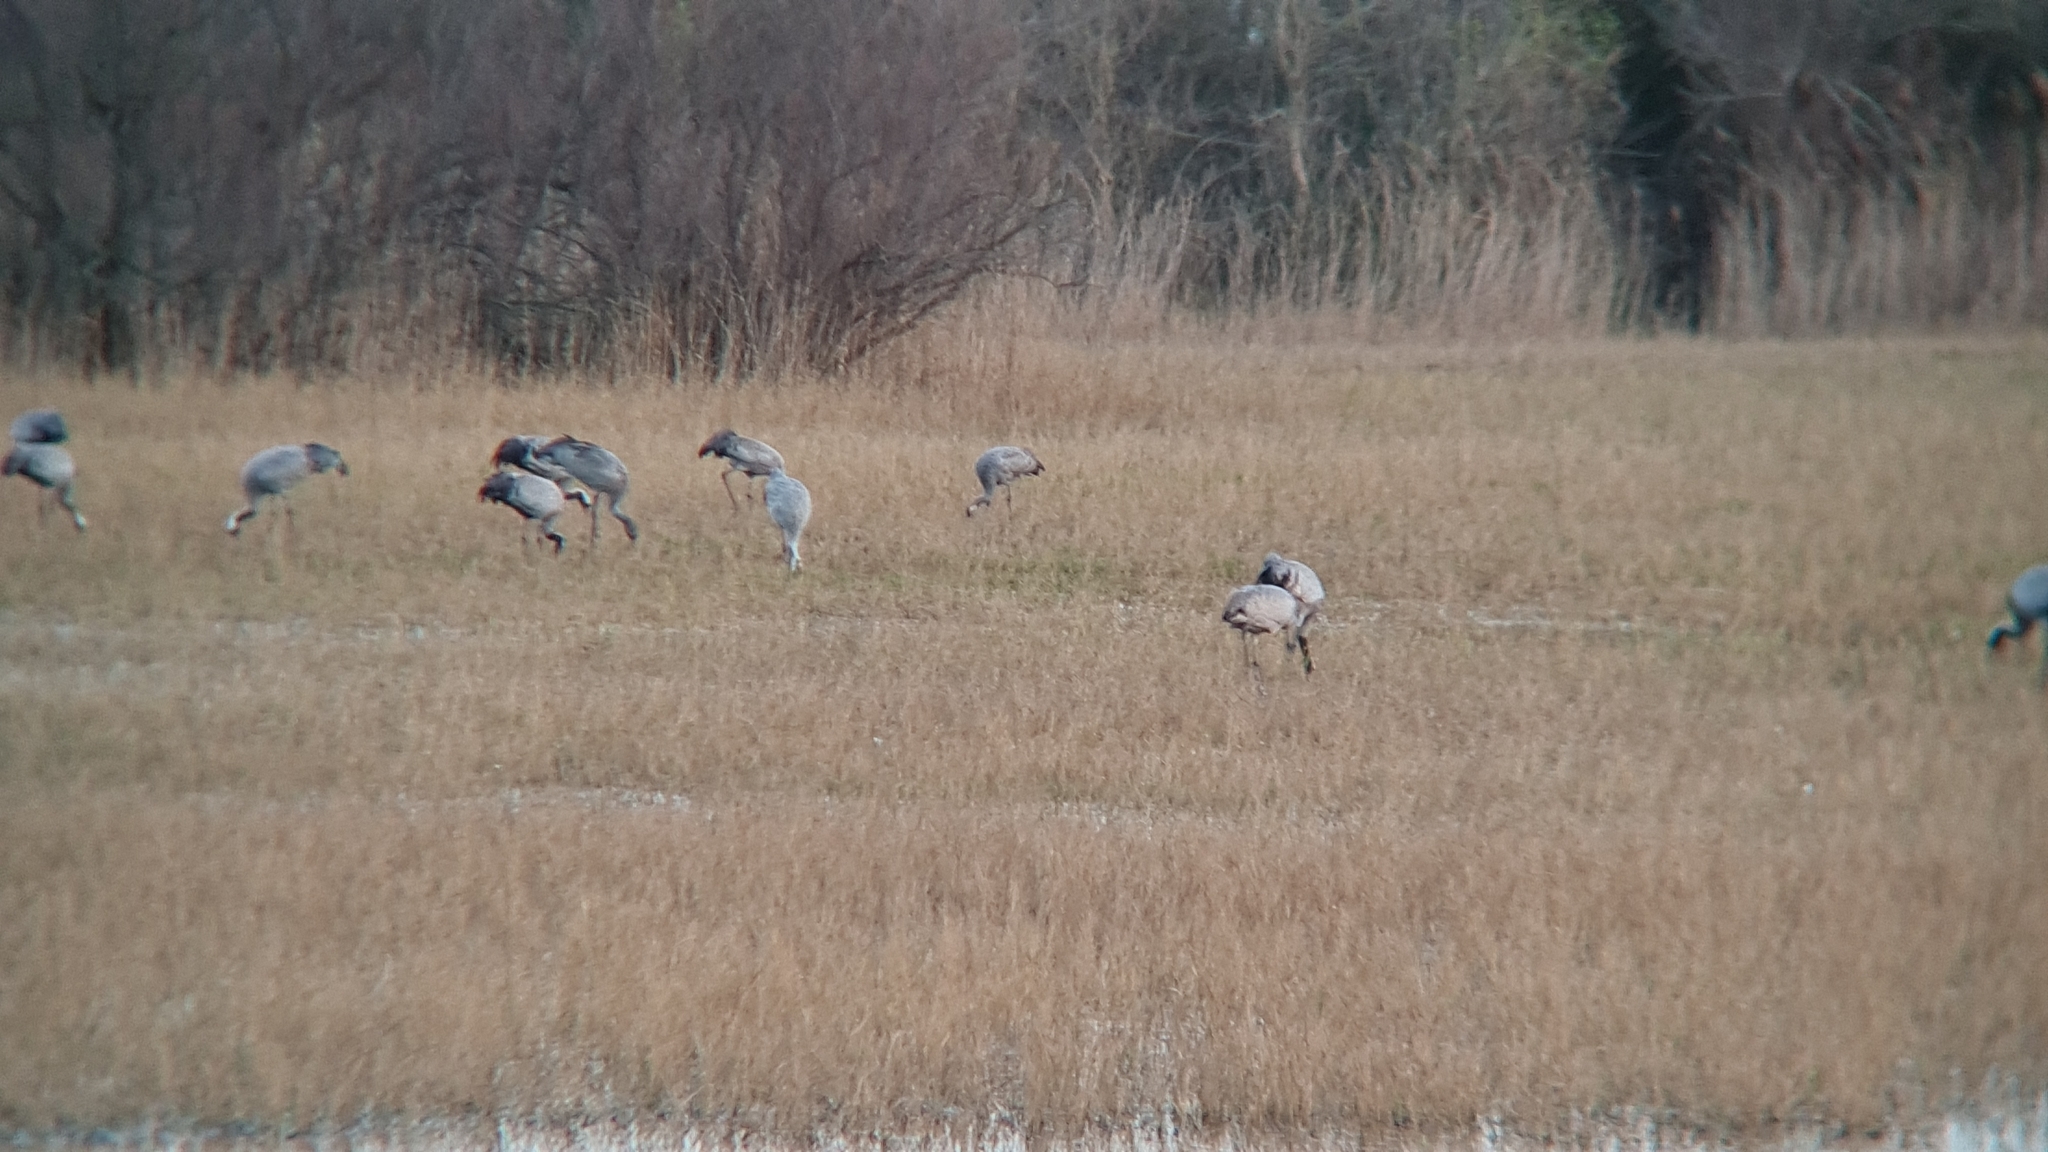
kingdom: Animalia
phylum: Chordata
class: Aves
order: Gruiformes
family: Gruidae
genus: Grus
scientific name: Grus grus
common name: Common crane
